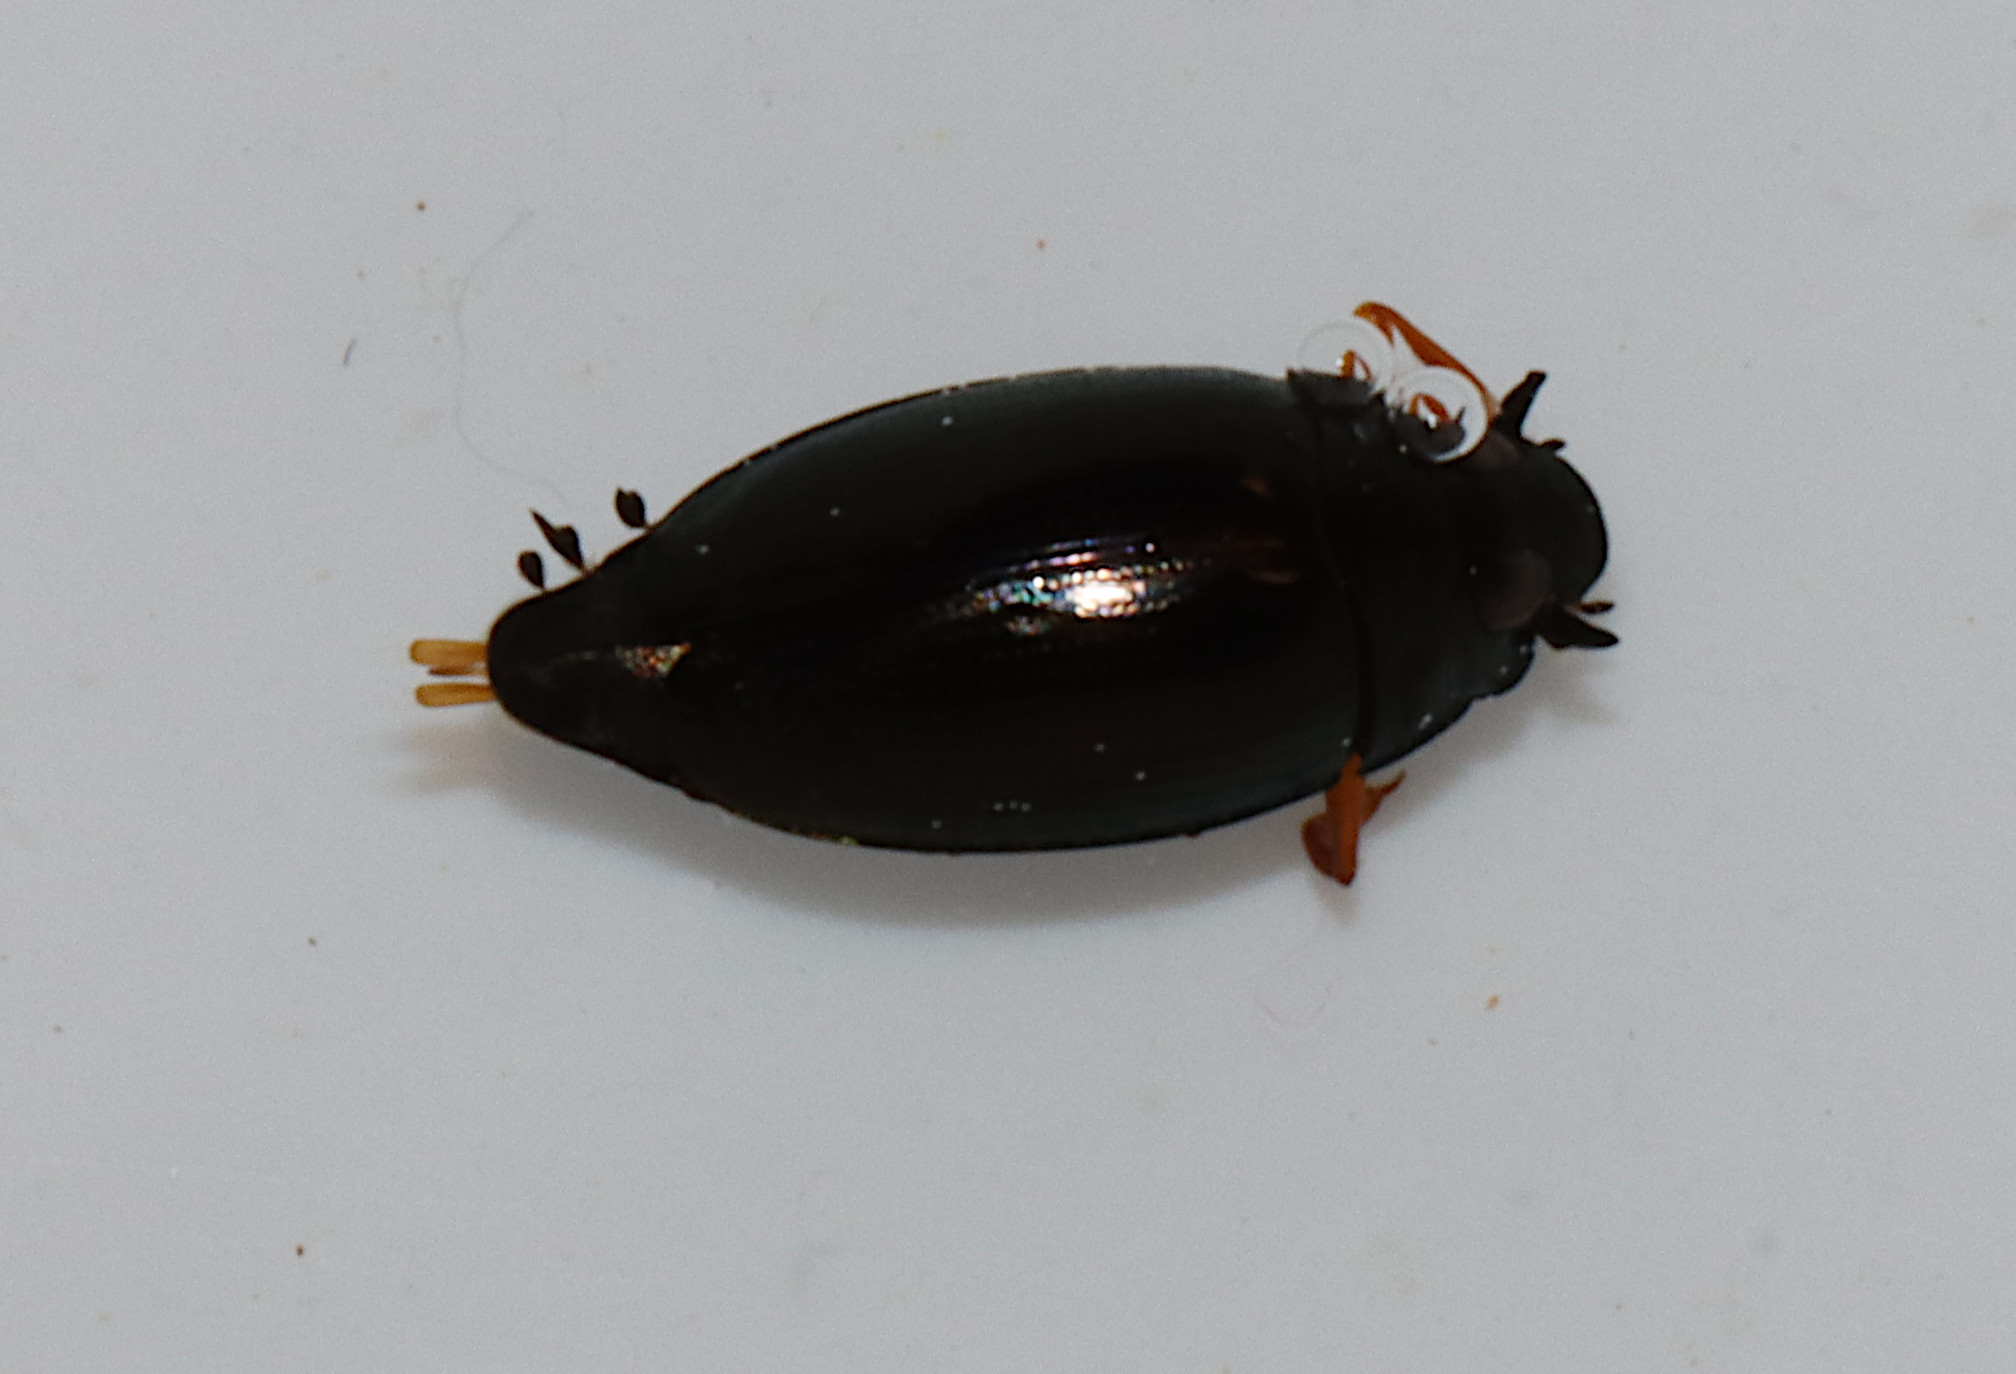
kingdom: Animalia
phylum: Arthropoda
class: Insecta
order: Coleoptera
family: Gyrinidae
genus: Gyrinus
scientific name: Gyrinus
